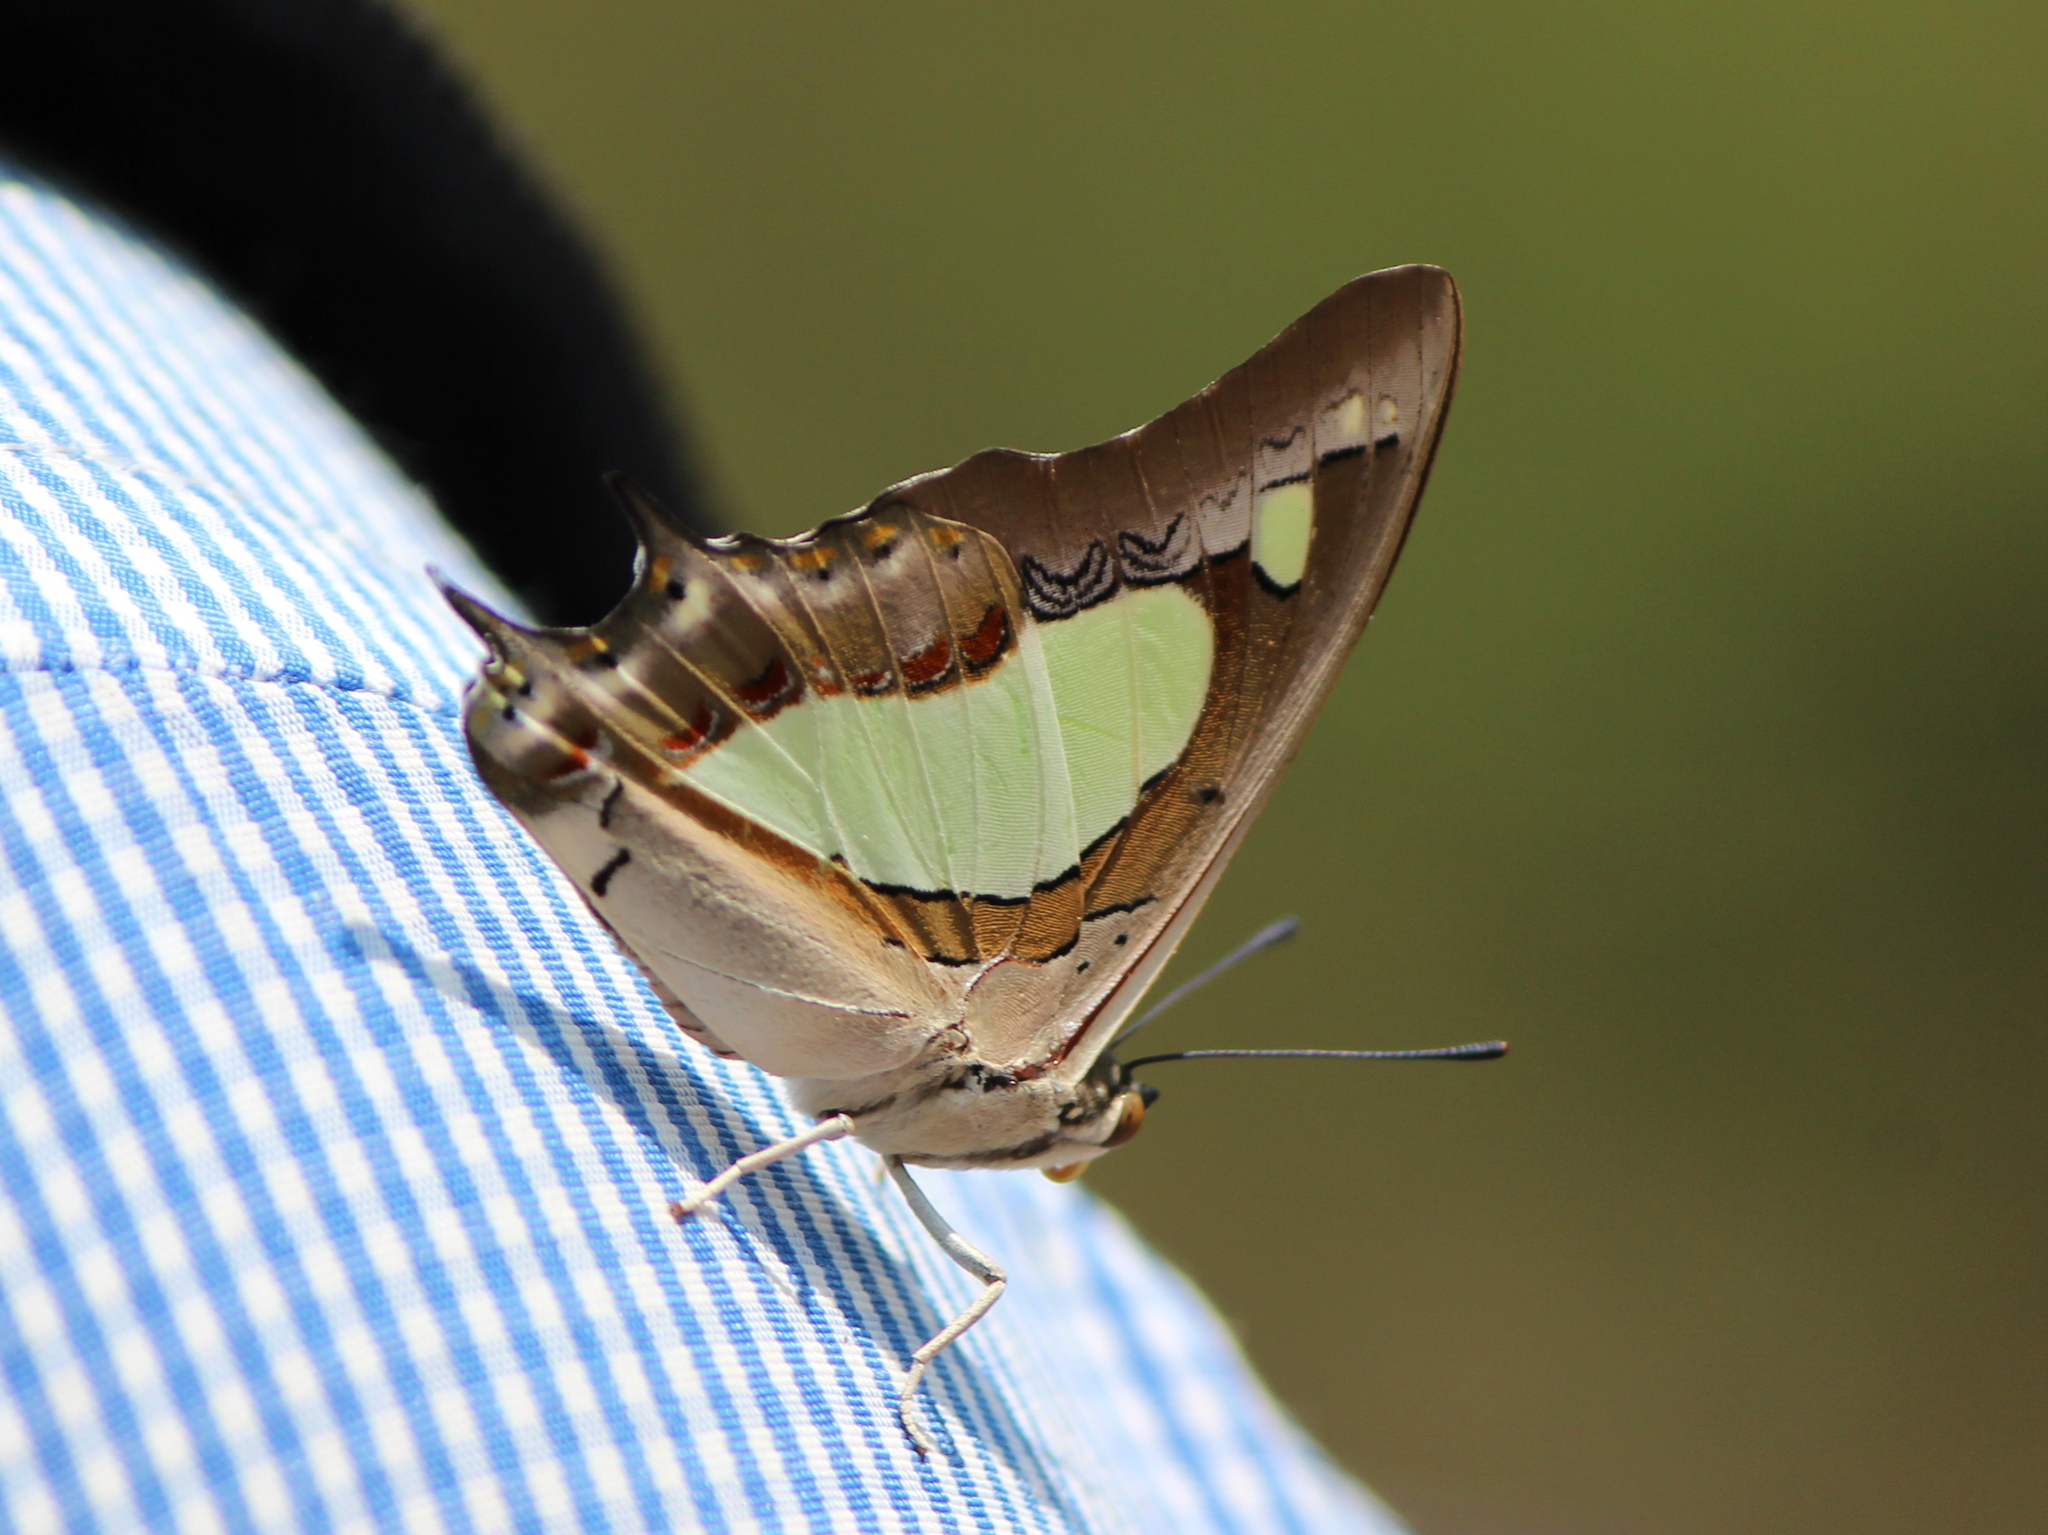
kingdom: Animalia
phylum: Arthropoda
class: Insecta
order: Lepidoptera
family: Nymphalidae
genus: Polyura
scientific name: Polyura agrarius
